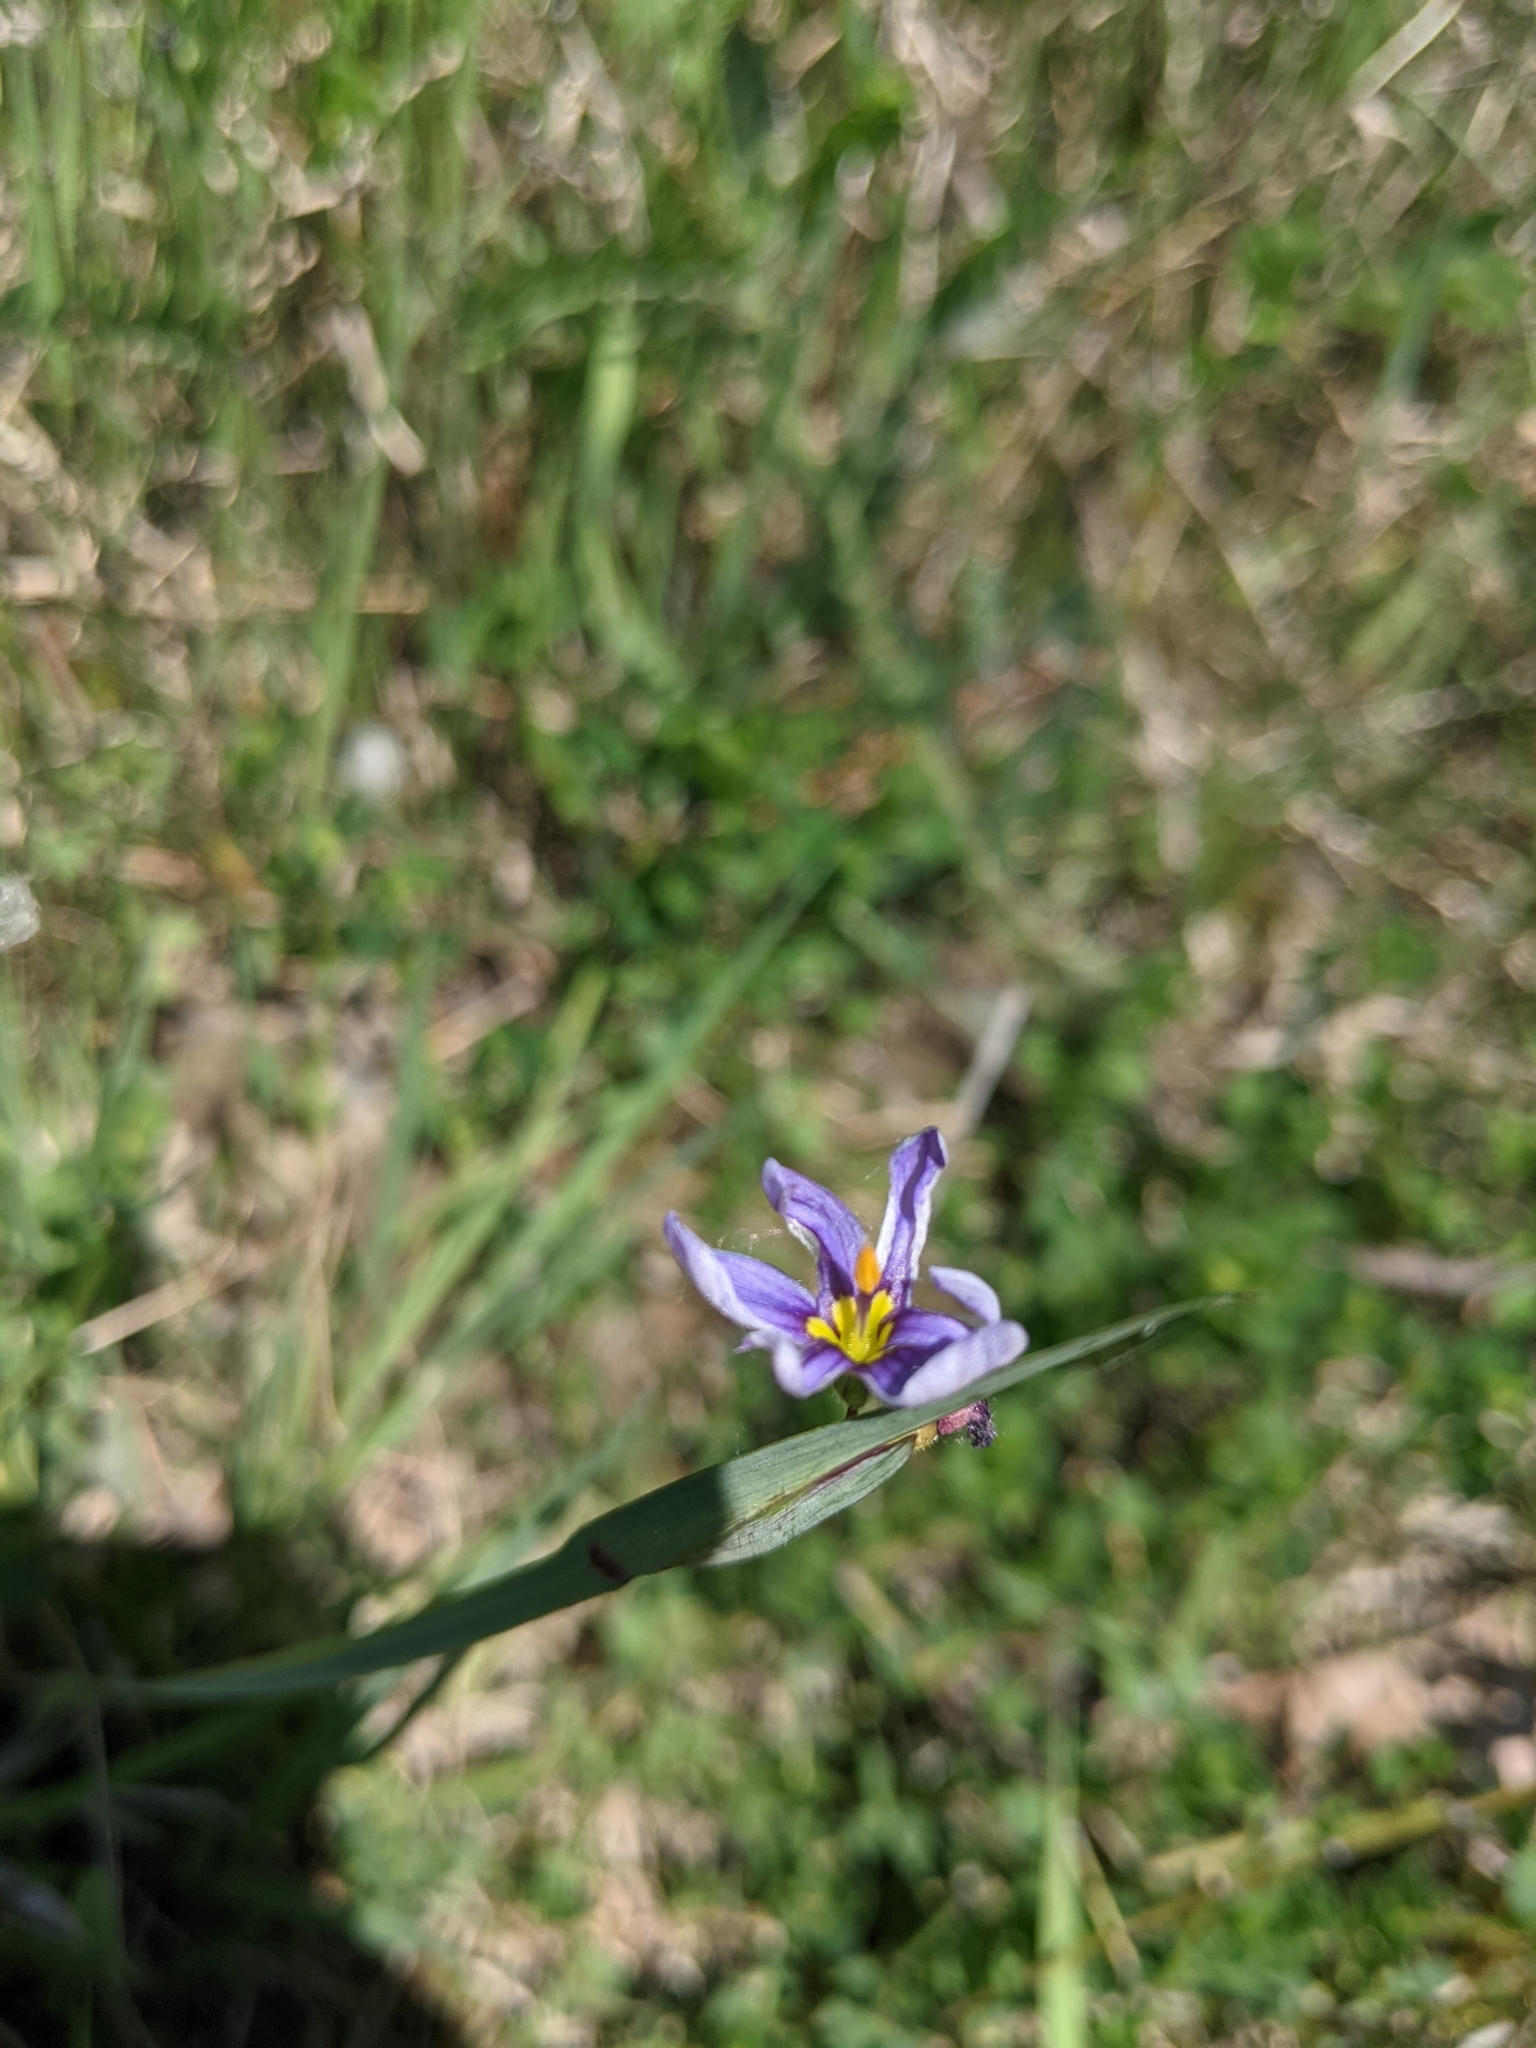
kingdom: Plantae
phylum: Tracheophyta
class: Liliopsida
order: Asparagales
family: Iridaceae
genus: Sisyrinchium
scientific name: Sisyrinchium montanum
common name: American blue-eyed-grass
